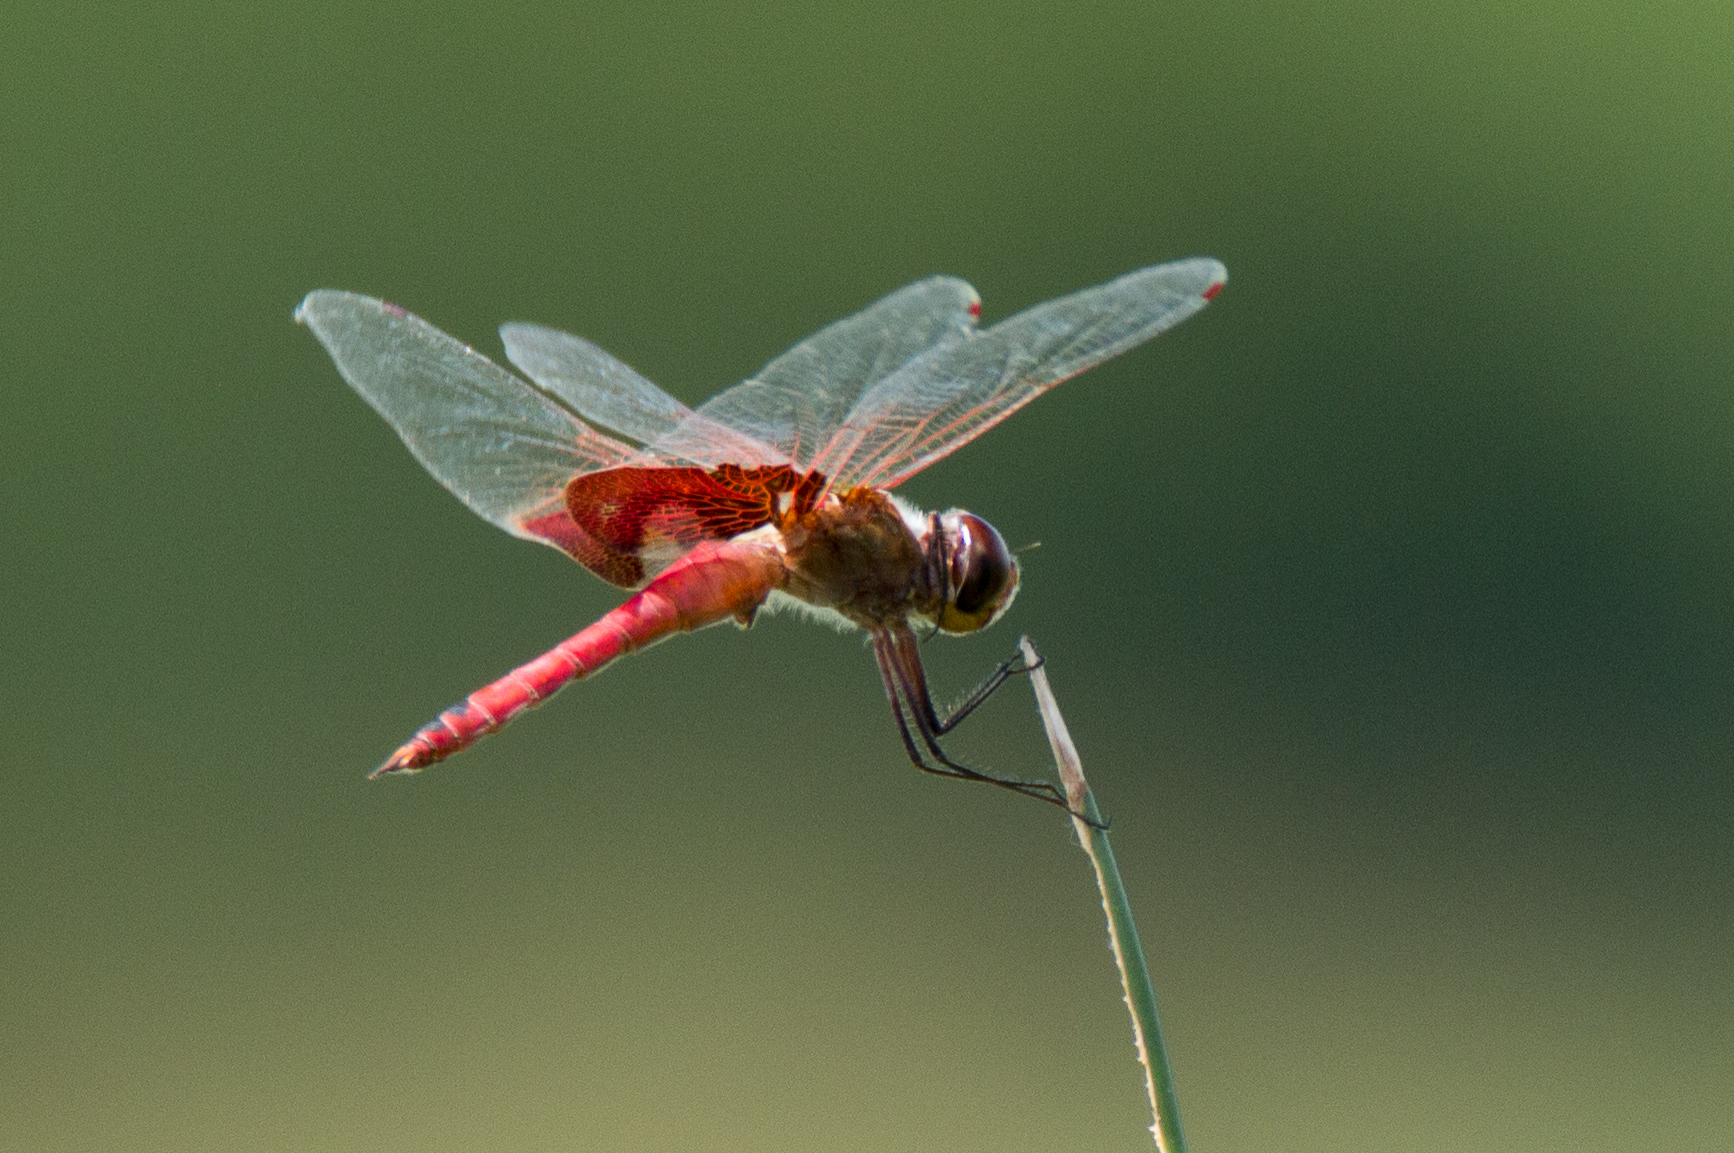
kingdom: Animalia
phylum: Arthropoda
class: Insecta
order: Odonata
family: Libellulidae
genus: Tramea
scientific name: Tramea onusta
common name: Red saddlebags
